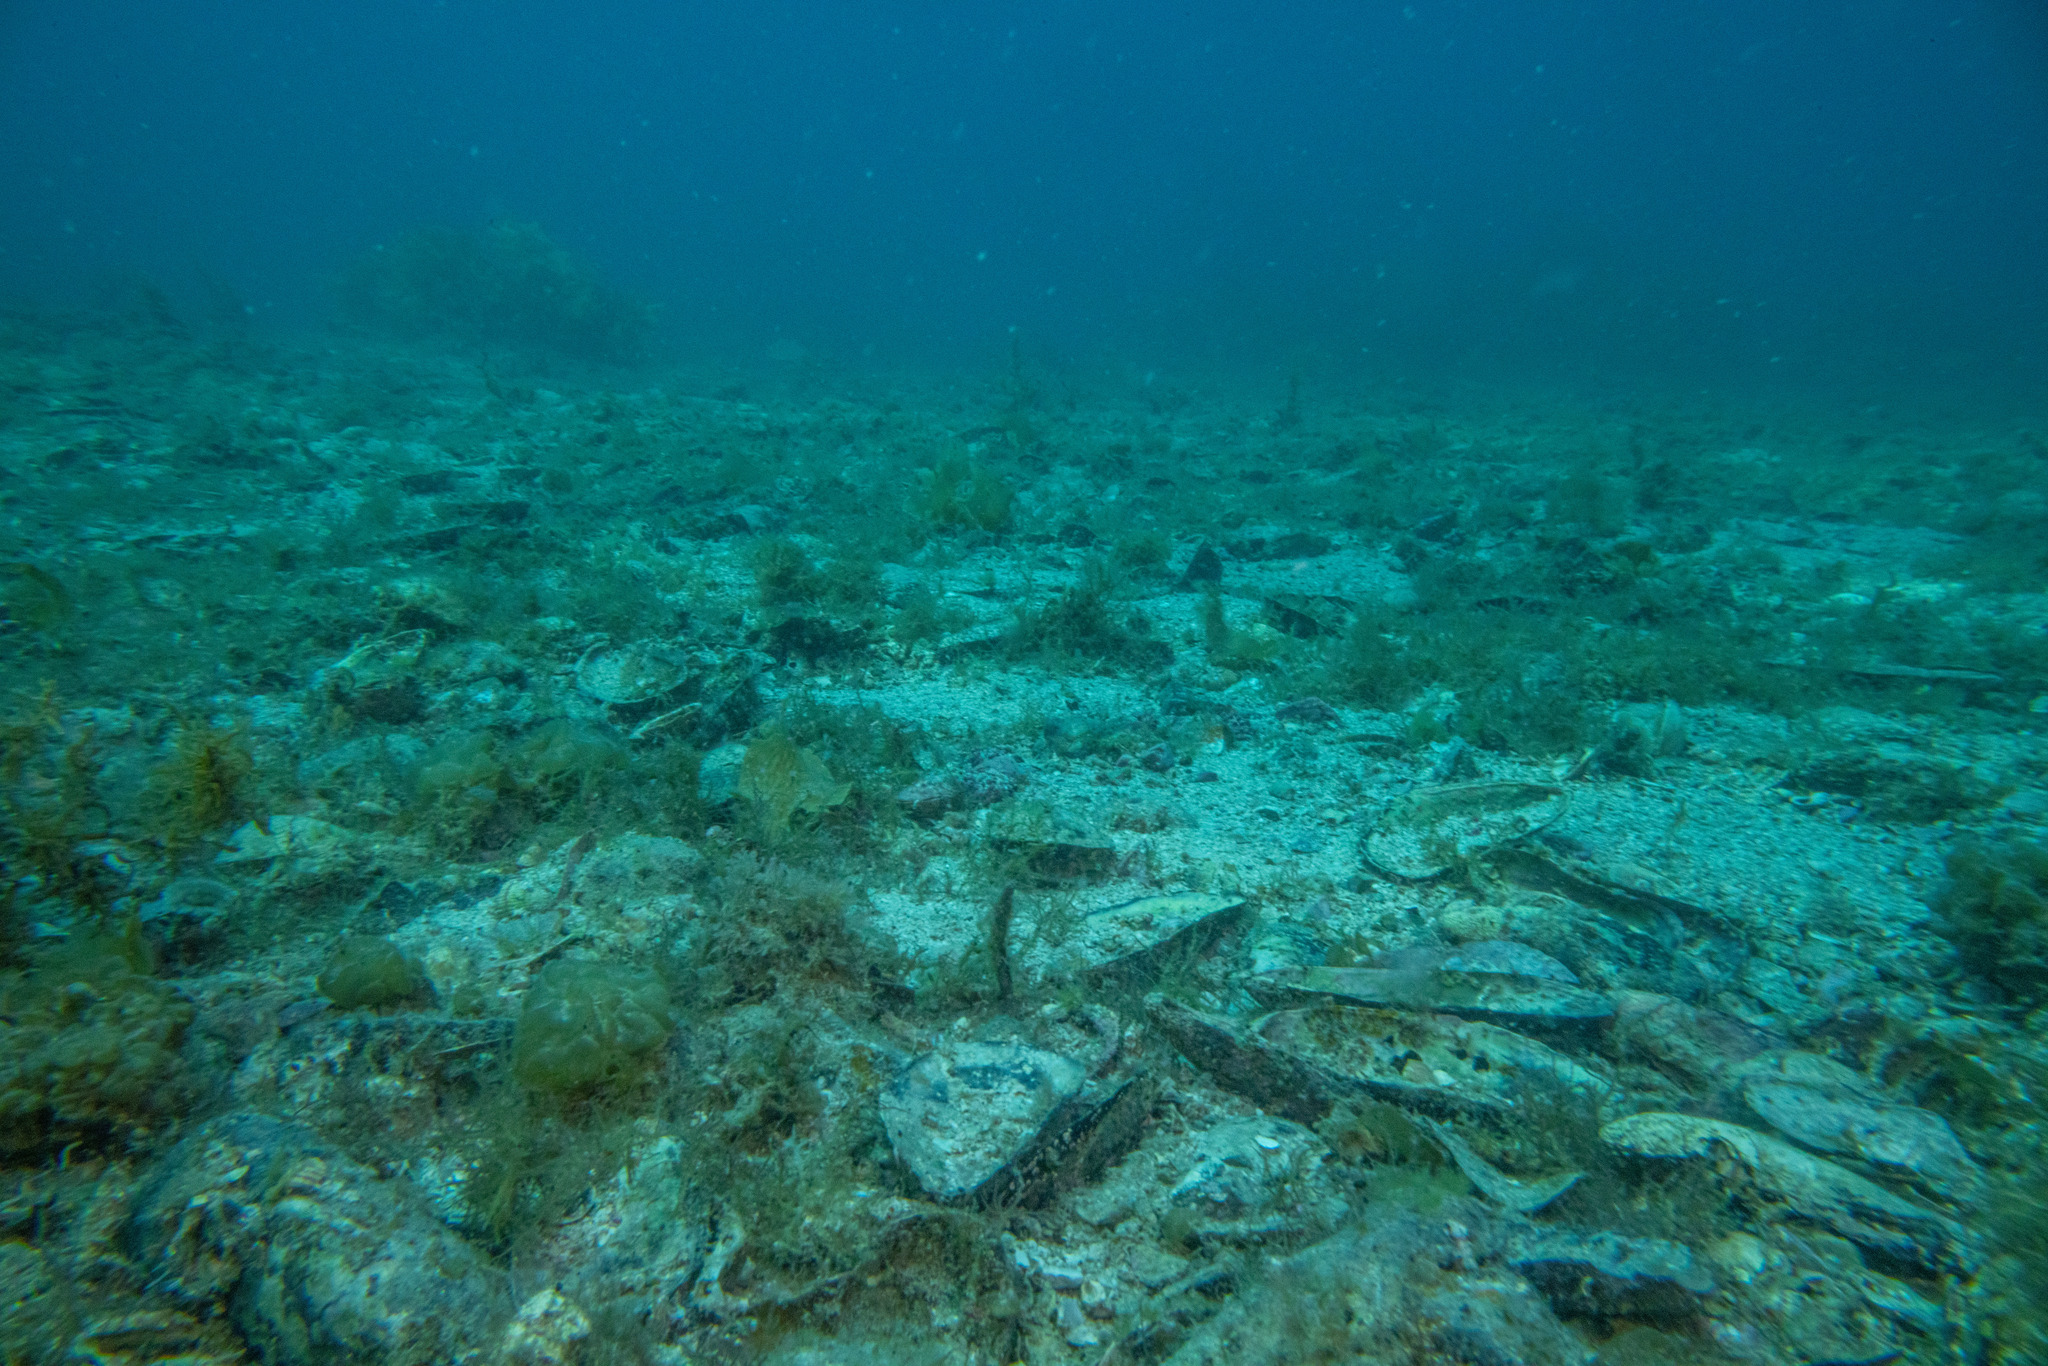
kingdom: Animalia
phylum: Mollusca
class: Bivalvia
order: Mytilida
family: Mytilidae
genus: Perna
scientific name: Perna canaliculus
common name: New zealand greenshelltm
